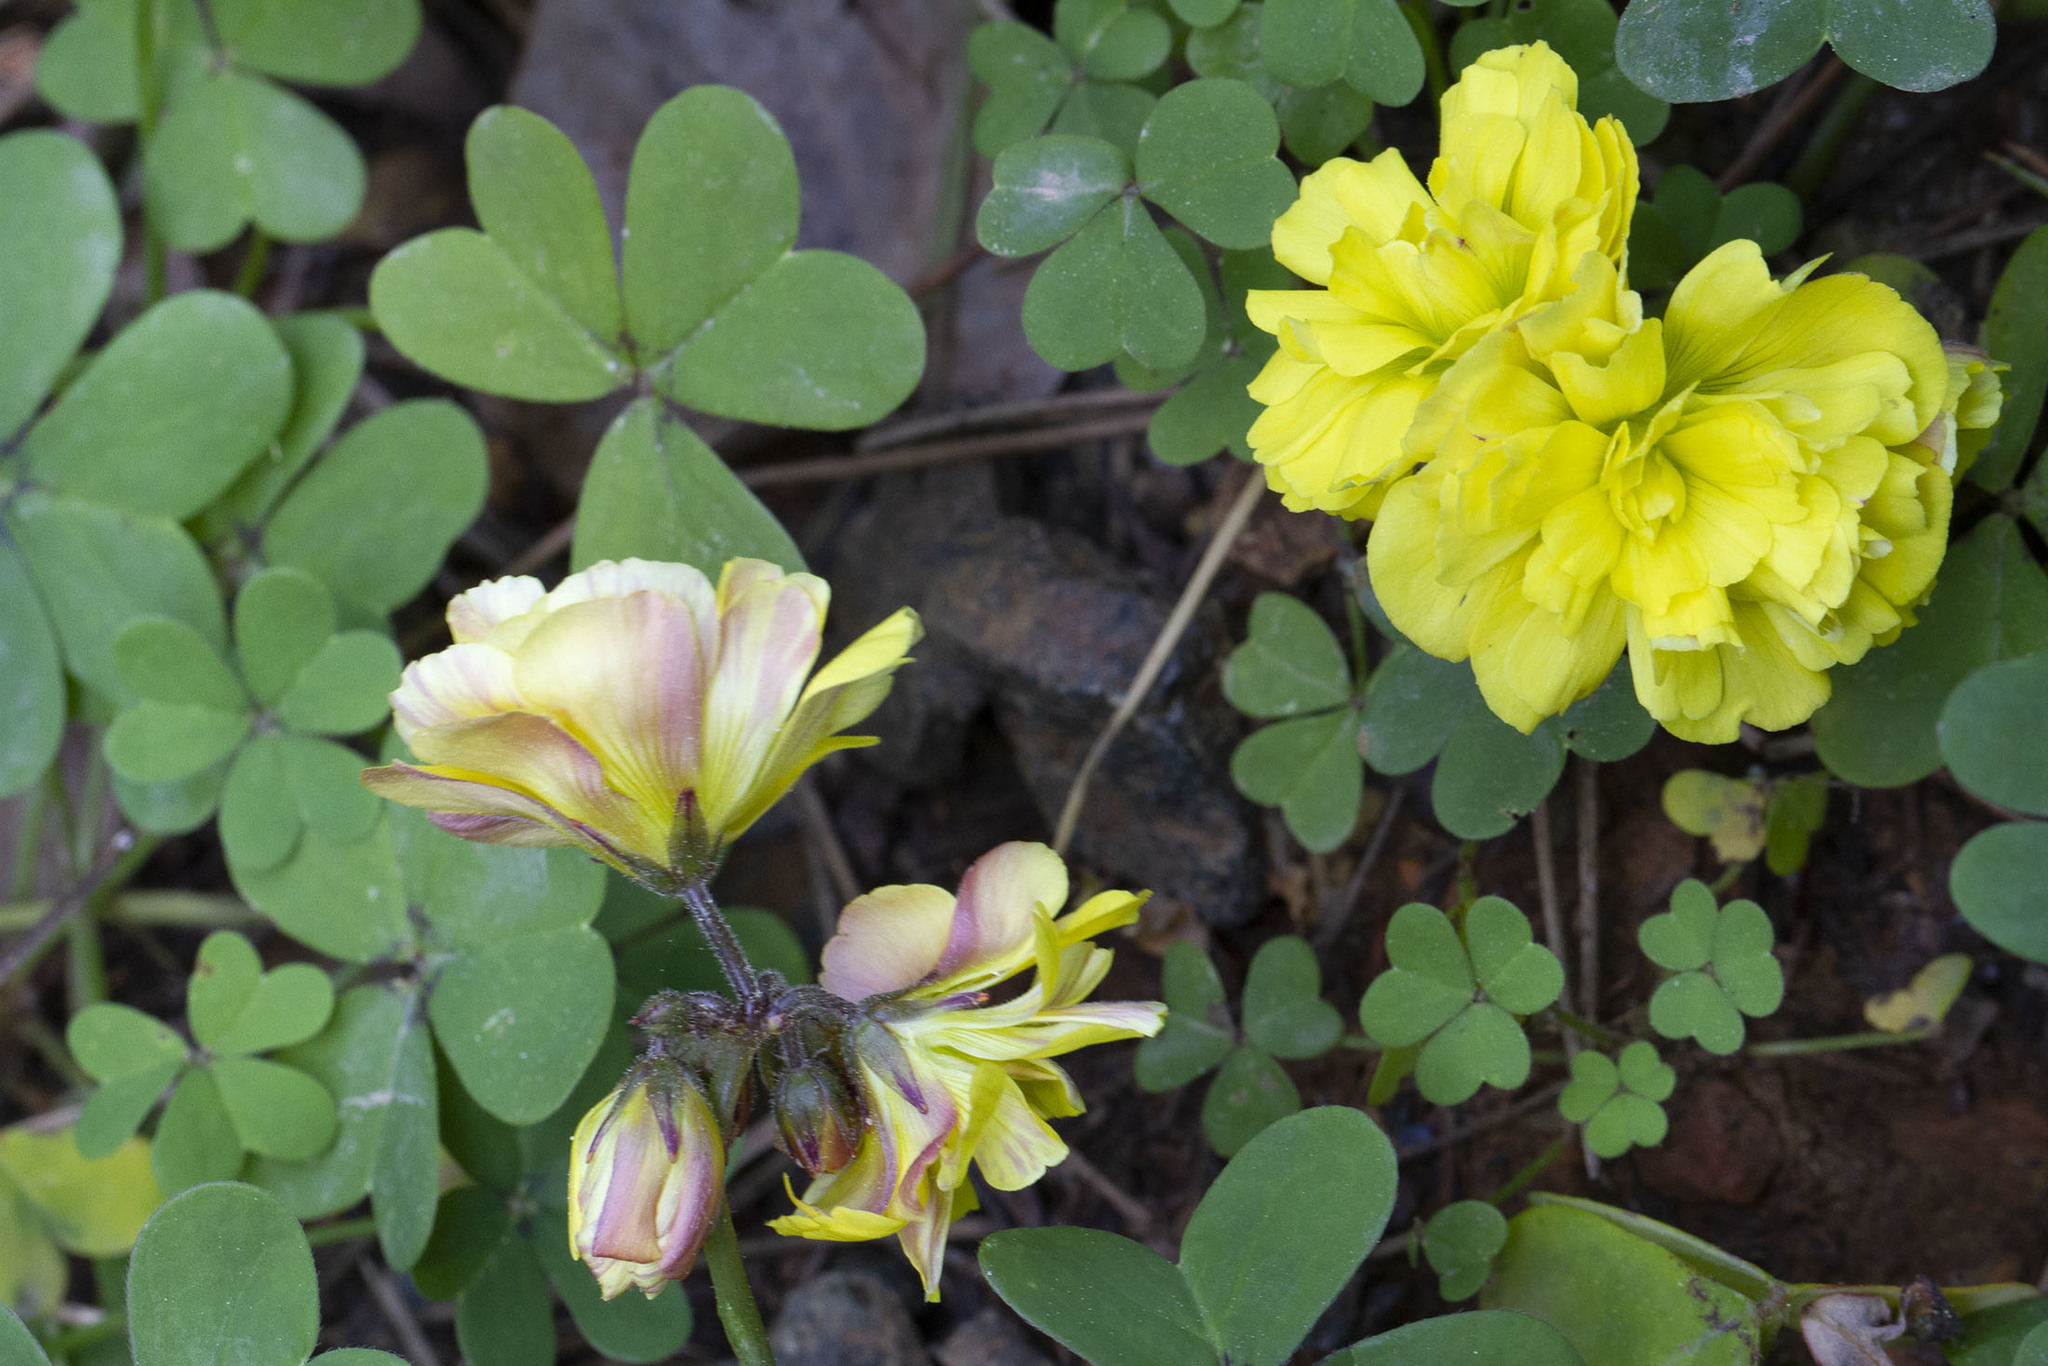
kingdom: Plantae
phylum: Tracheophyta
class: Magnoliopsida
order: Oxalidales
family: Oxalidaceae
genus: Oxalis
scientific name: Oxalis pes-caprae
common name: Bermuda-buttercup
